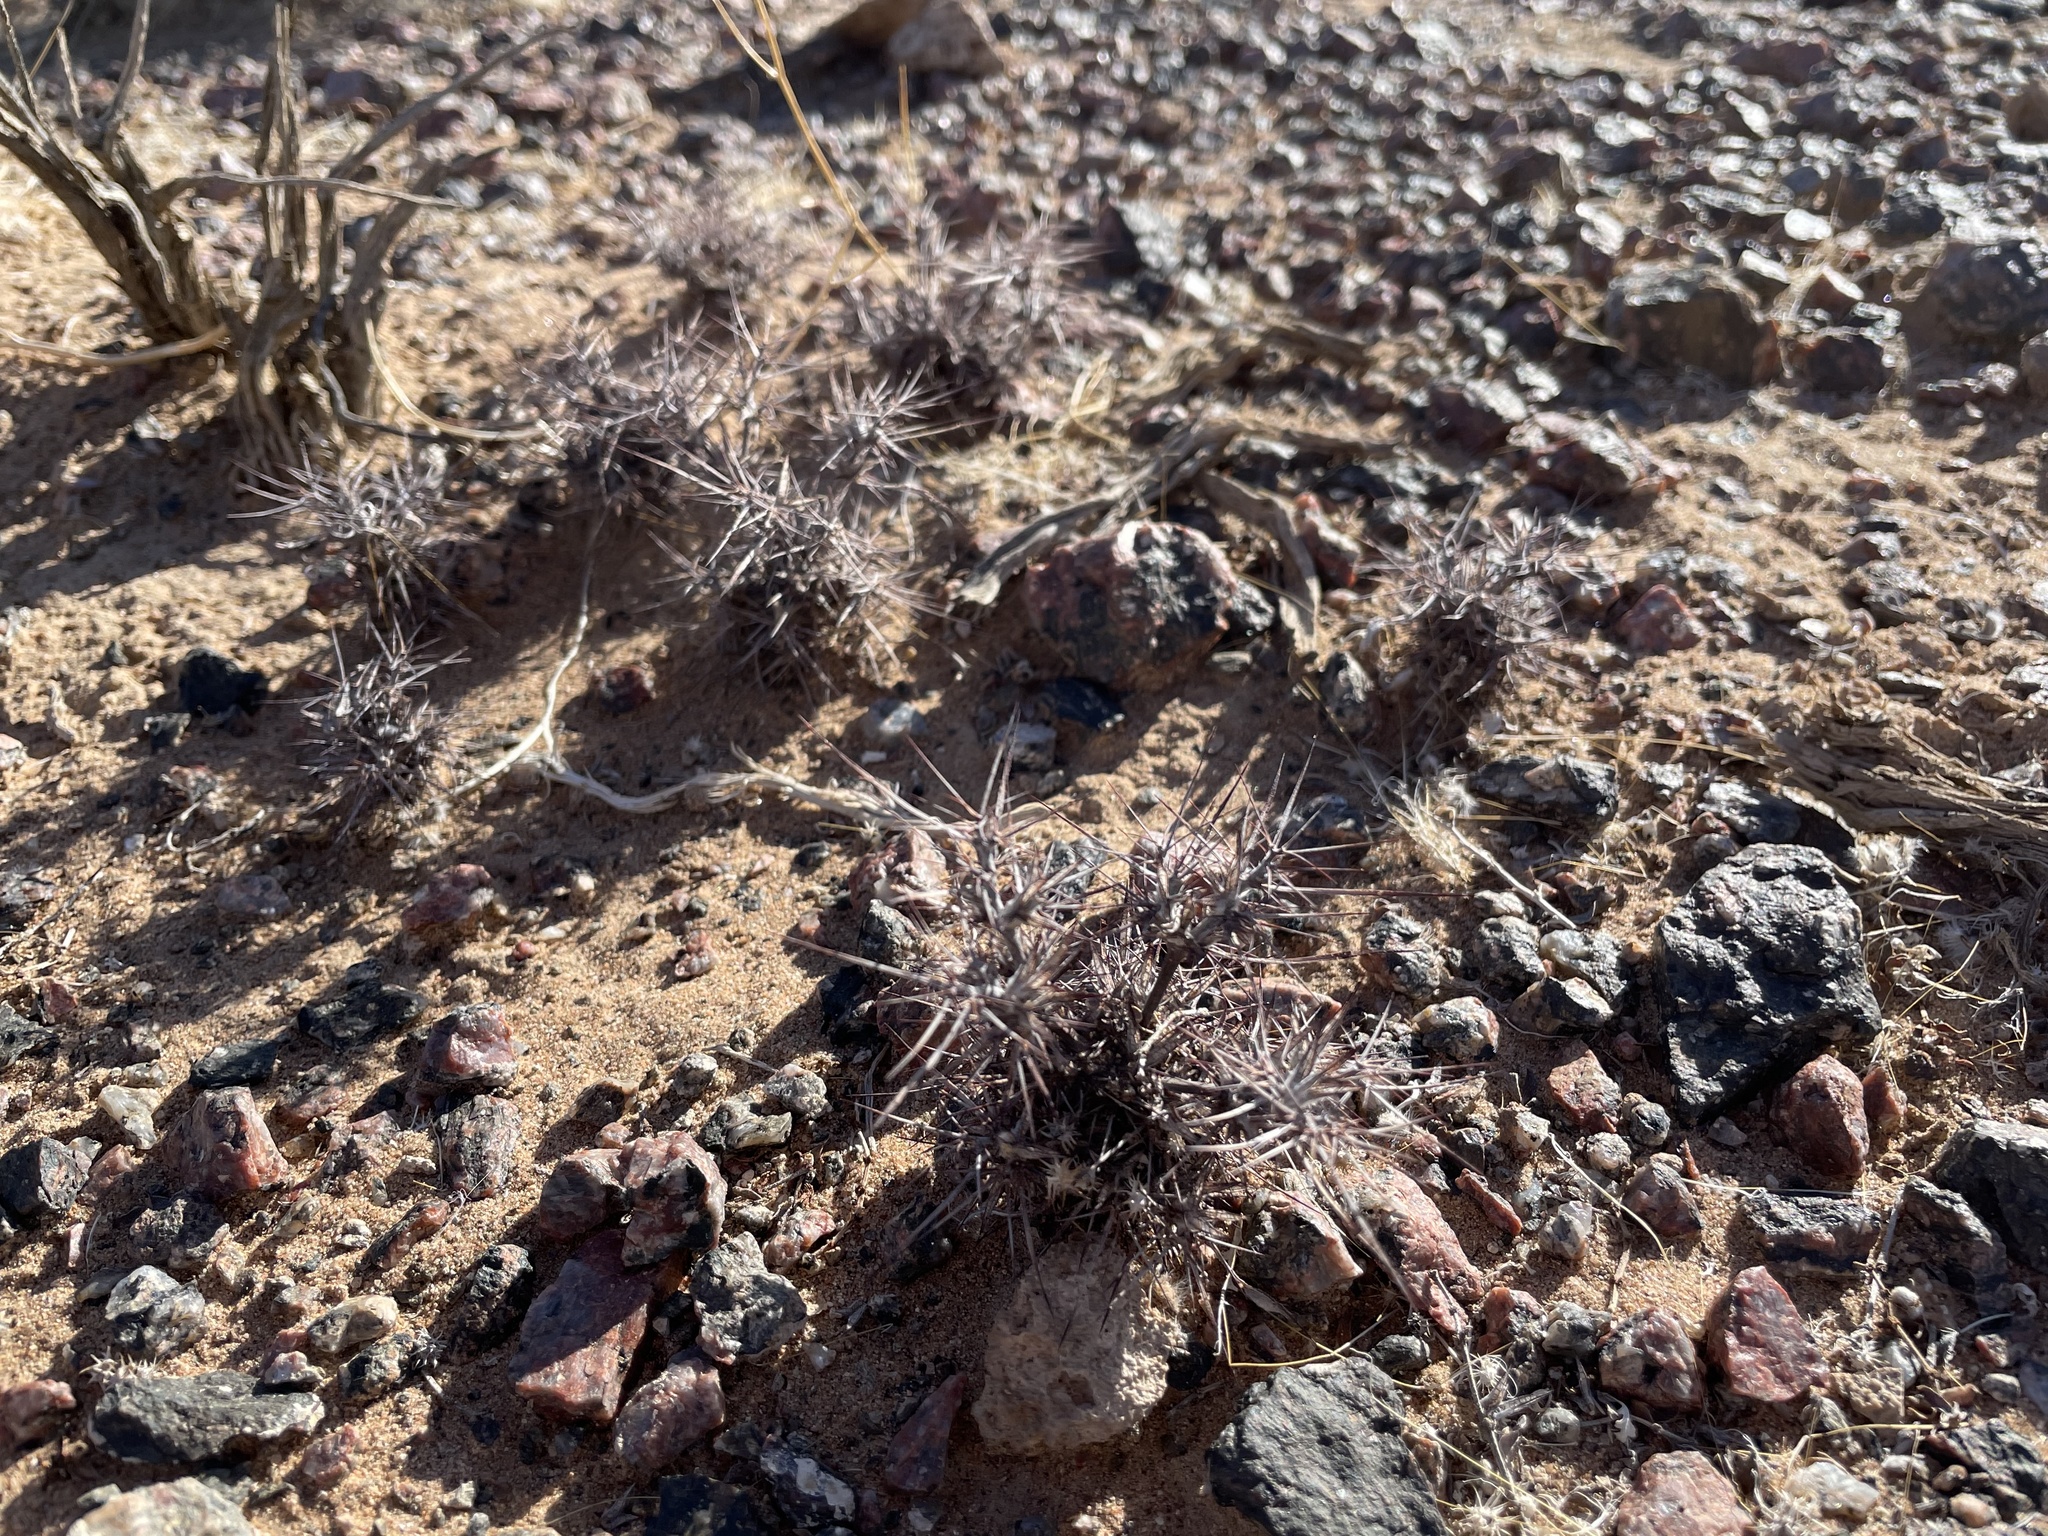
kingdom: Plantae
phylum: Tracheophyta
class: Magnoliopsida
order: Caryophyllales
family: Polygonaceae
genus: Chorizanthe
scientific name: Chorizanthe rigida
